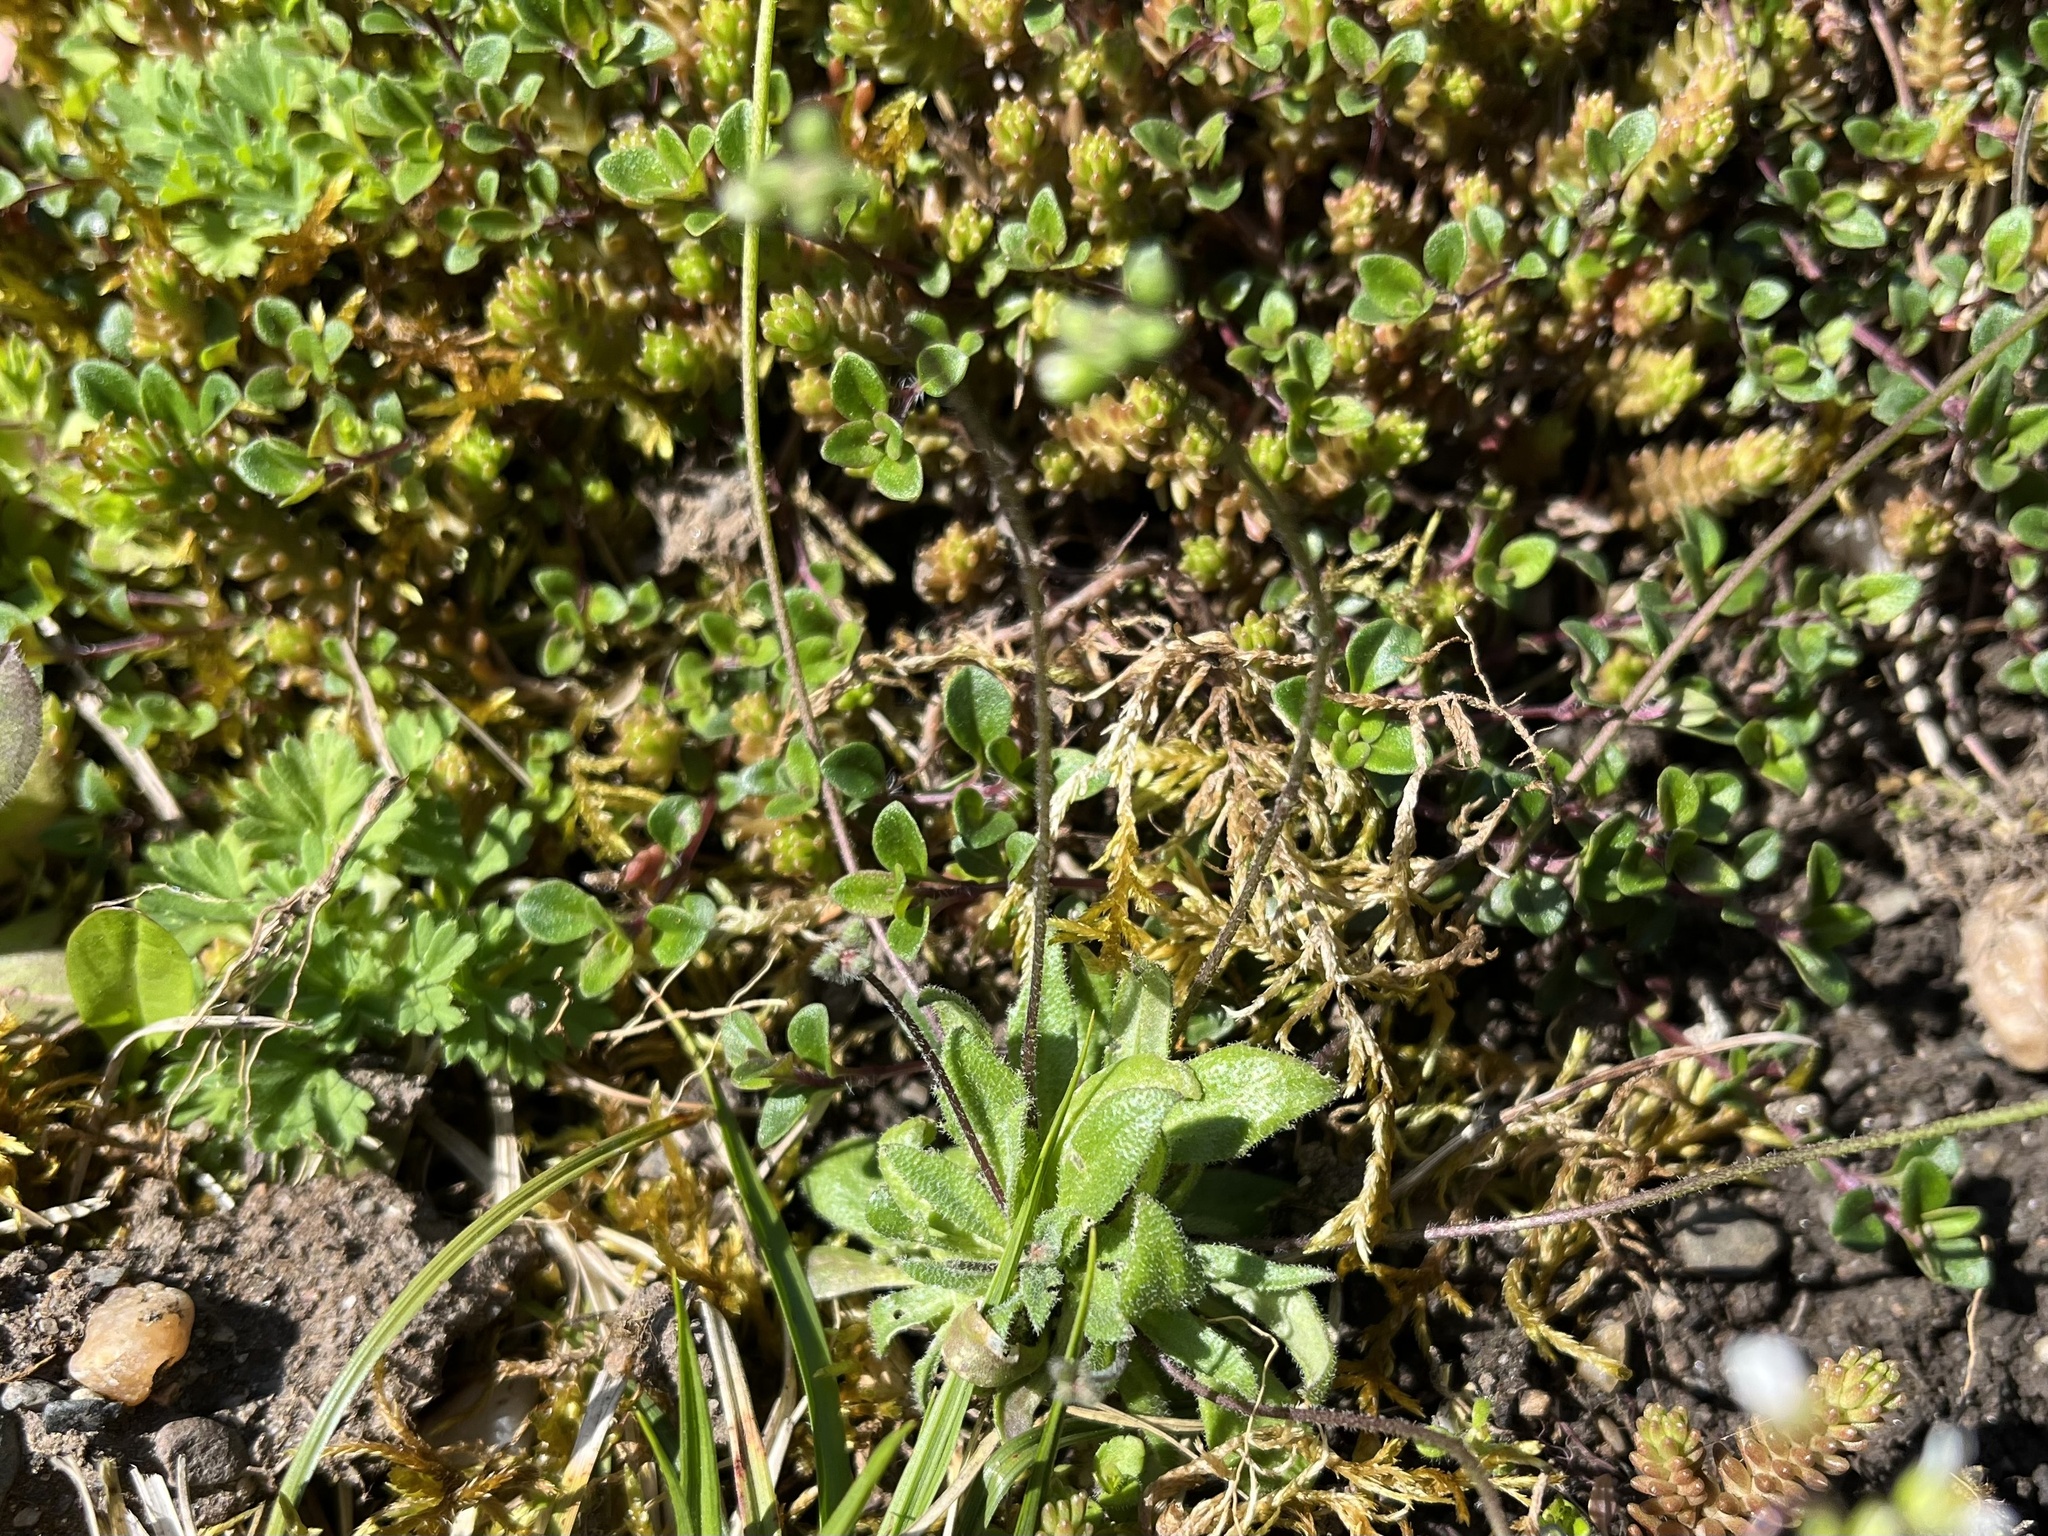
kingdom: Plantae
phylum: Tracheophyta
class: Magnoliopsida
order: Brassicales
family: Brassicaceae
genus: Draba
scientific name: Draba verna
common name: Spring draba
